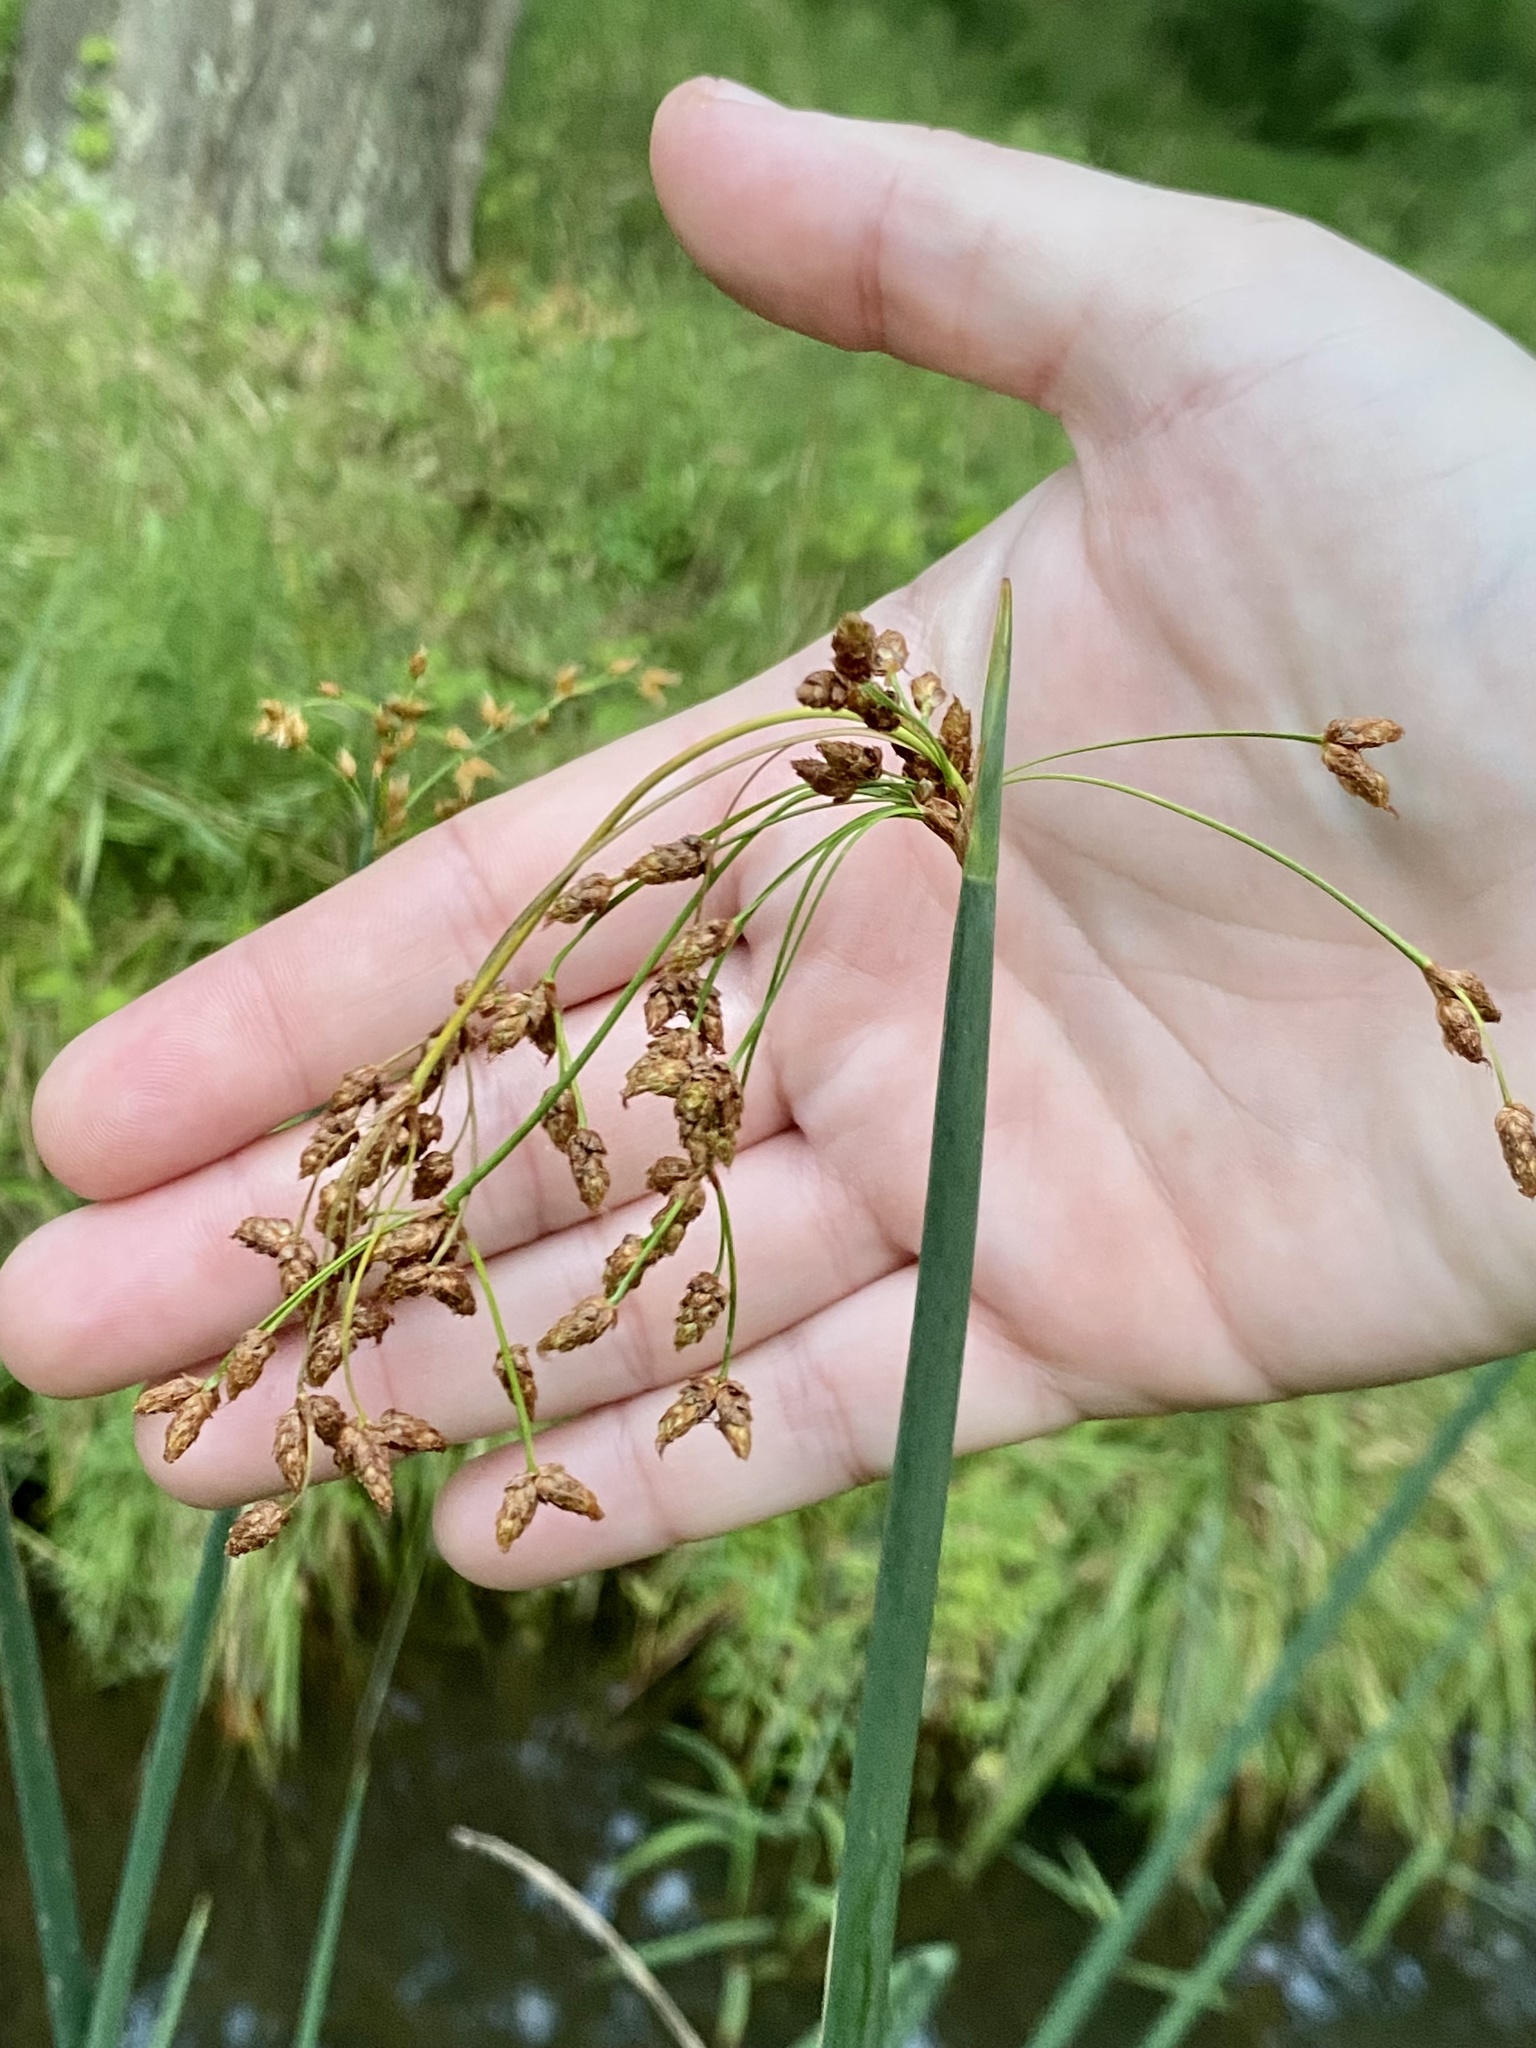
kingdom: Plantae
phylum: Tracheophyta
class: Liliopsida
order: Poales
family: Cyperaceae
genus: Schoenoplectus
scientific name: Schoenoplectus tabernaemontani
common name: Grey club-rush
